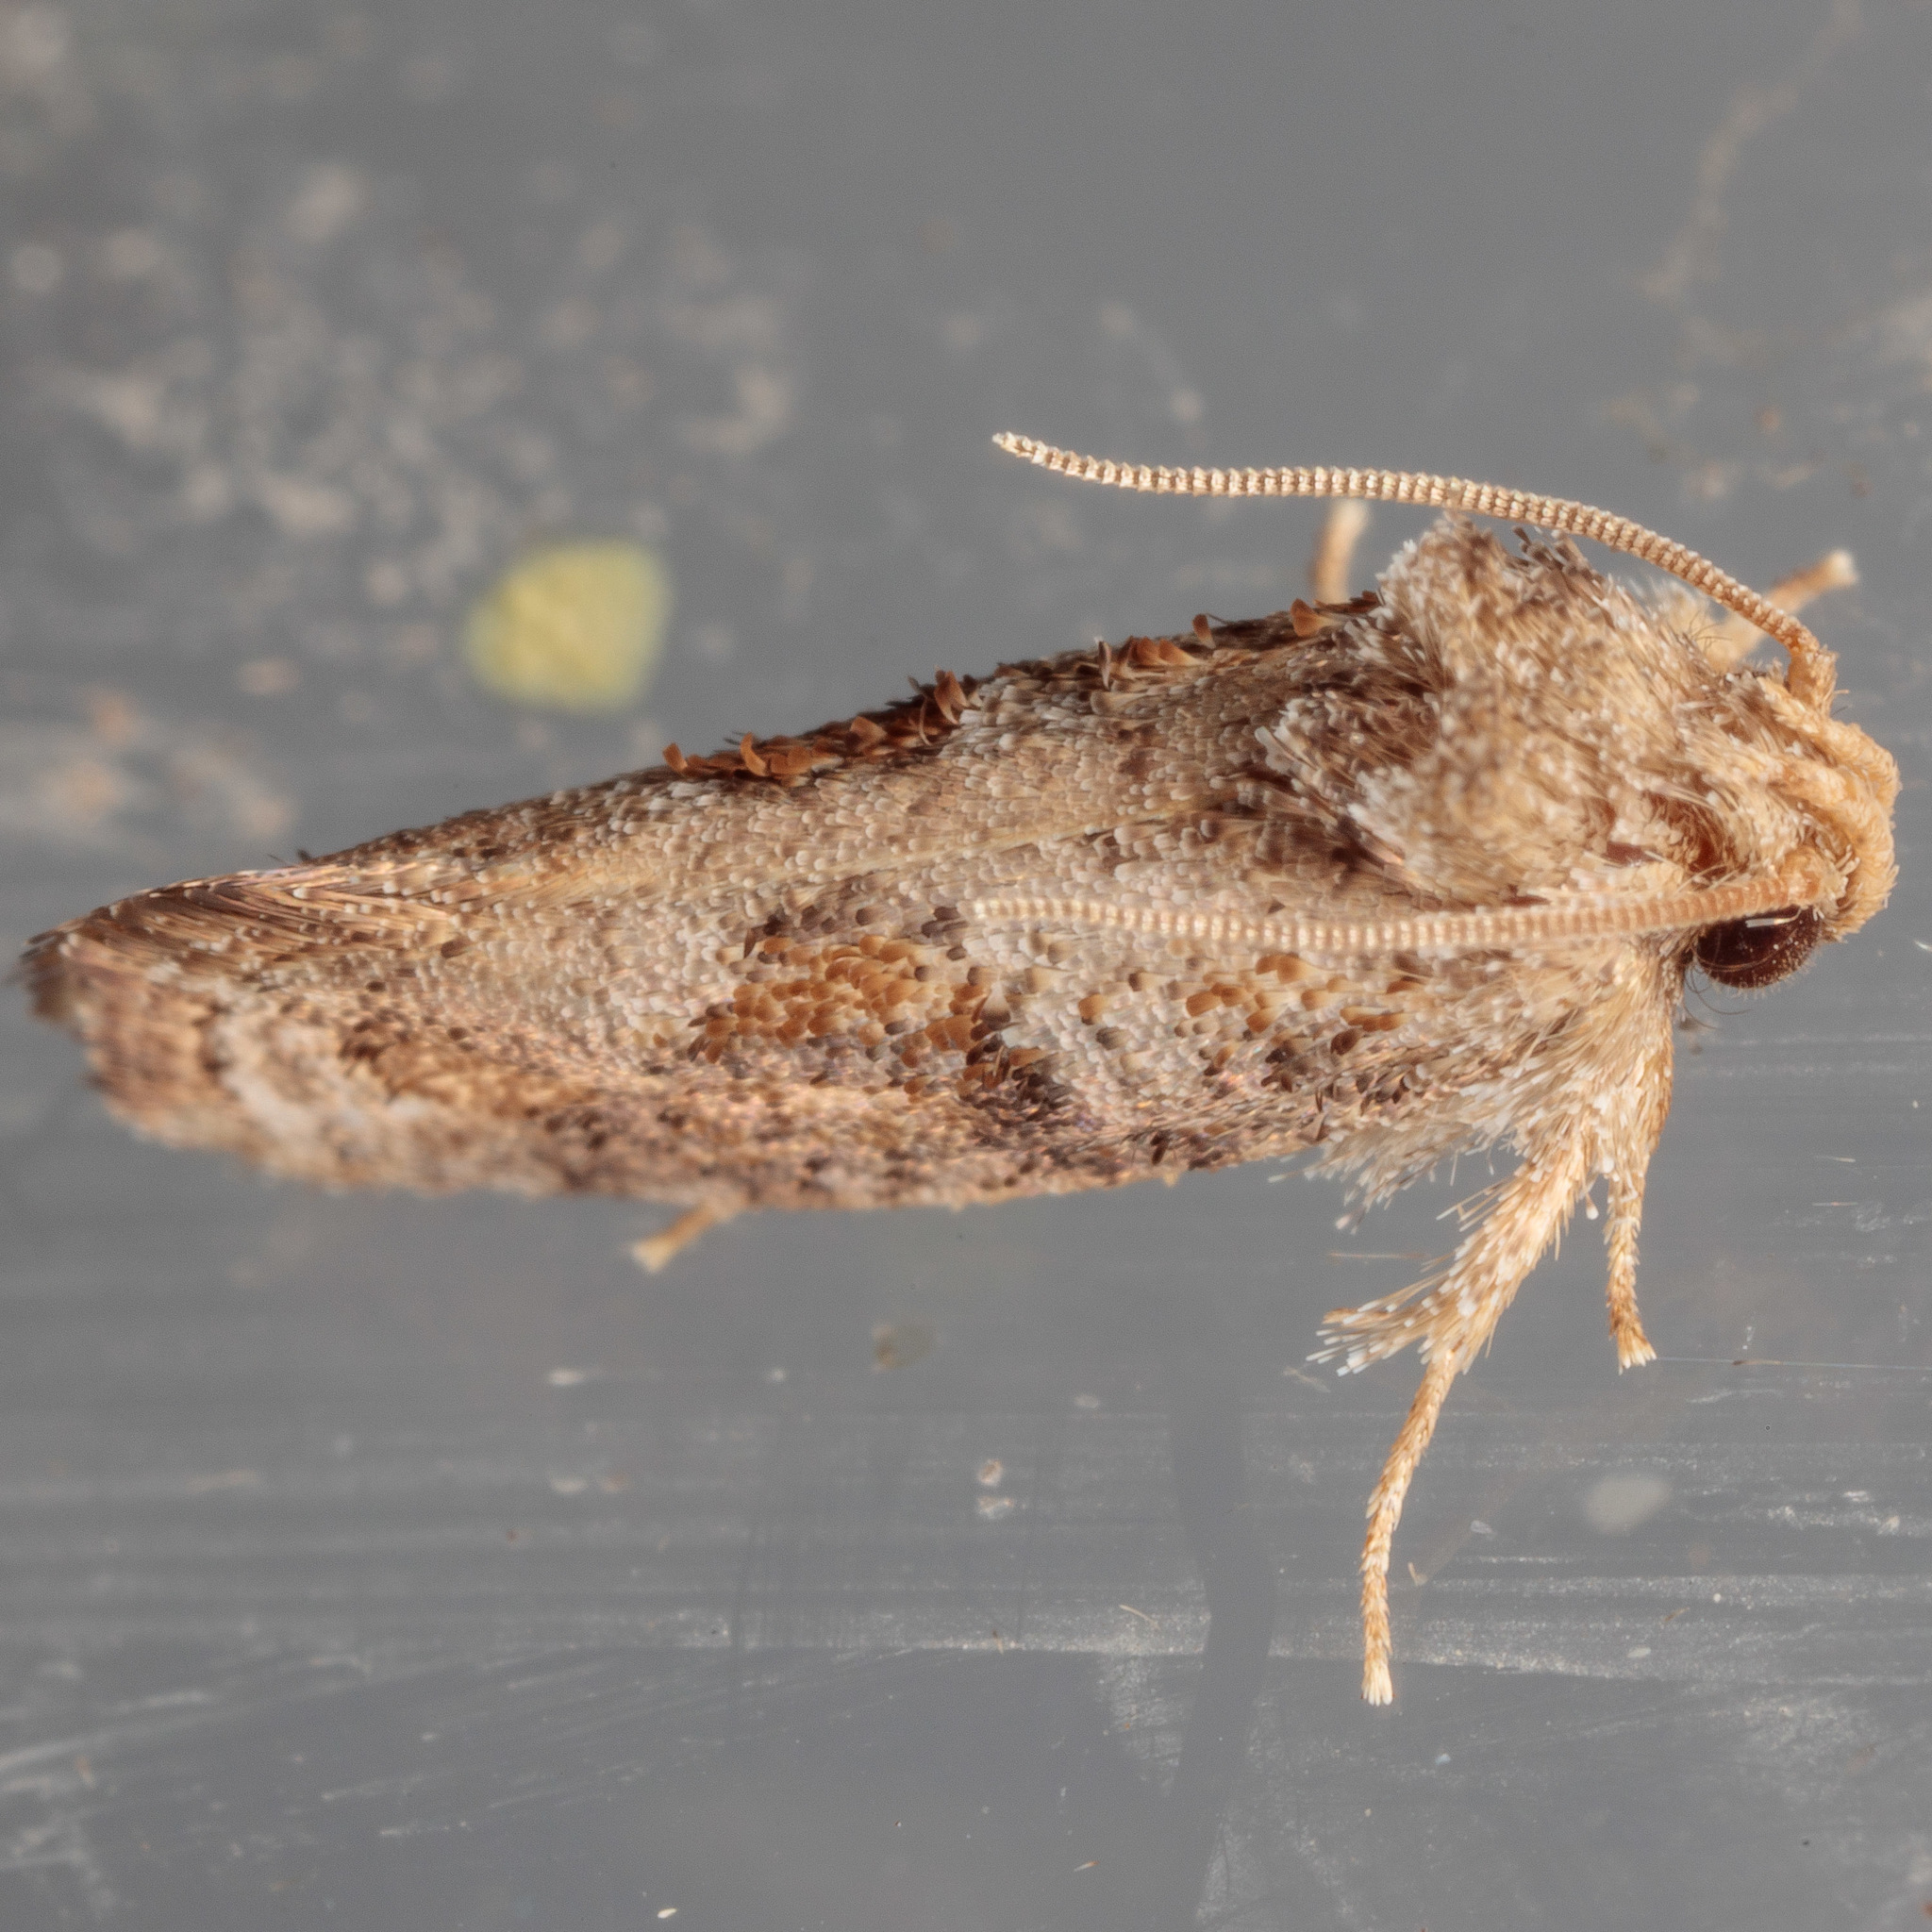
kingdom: Animalia
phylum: Arthropoda
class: Insecta
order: Lepidoptera
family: Tineidae
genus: Acrolophus
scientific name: Acrolophus piger
